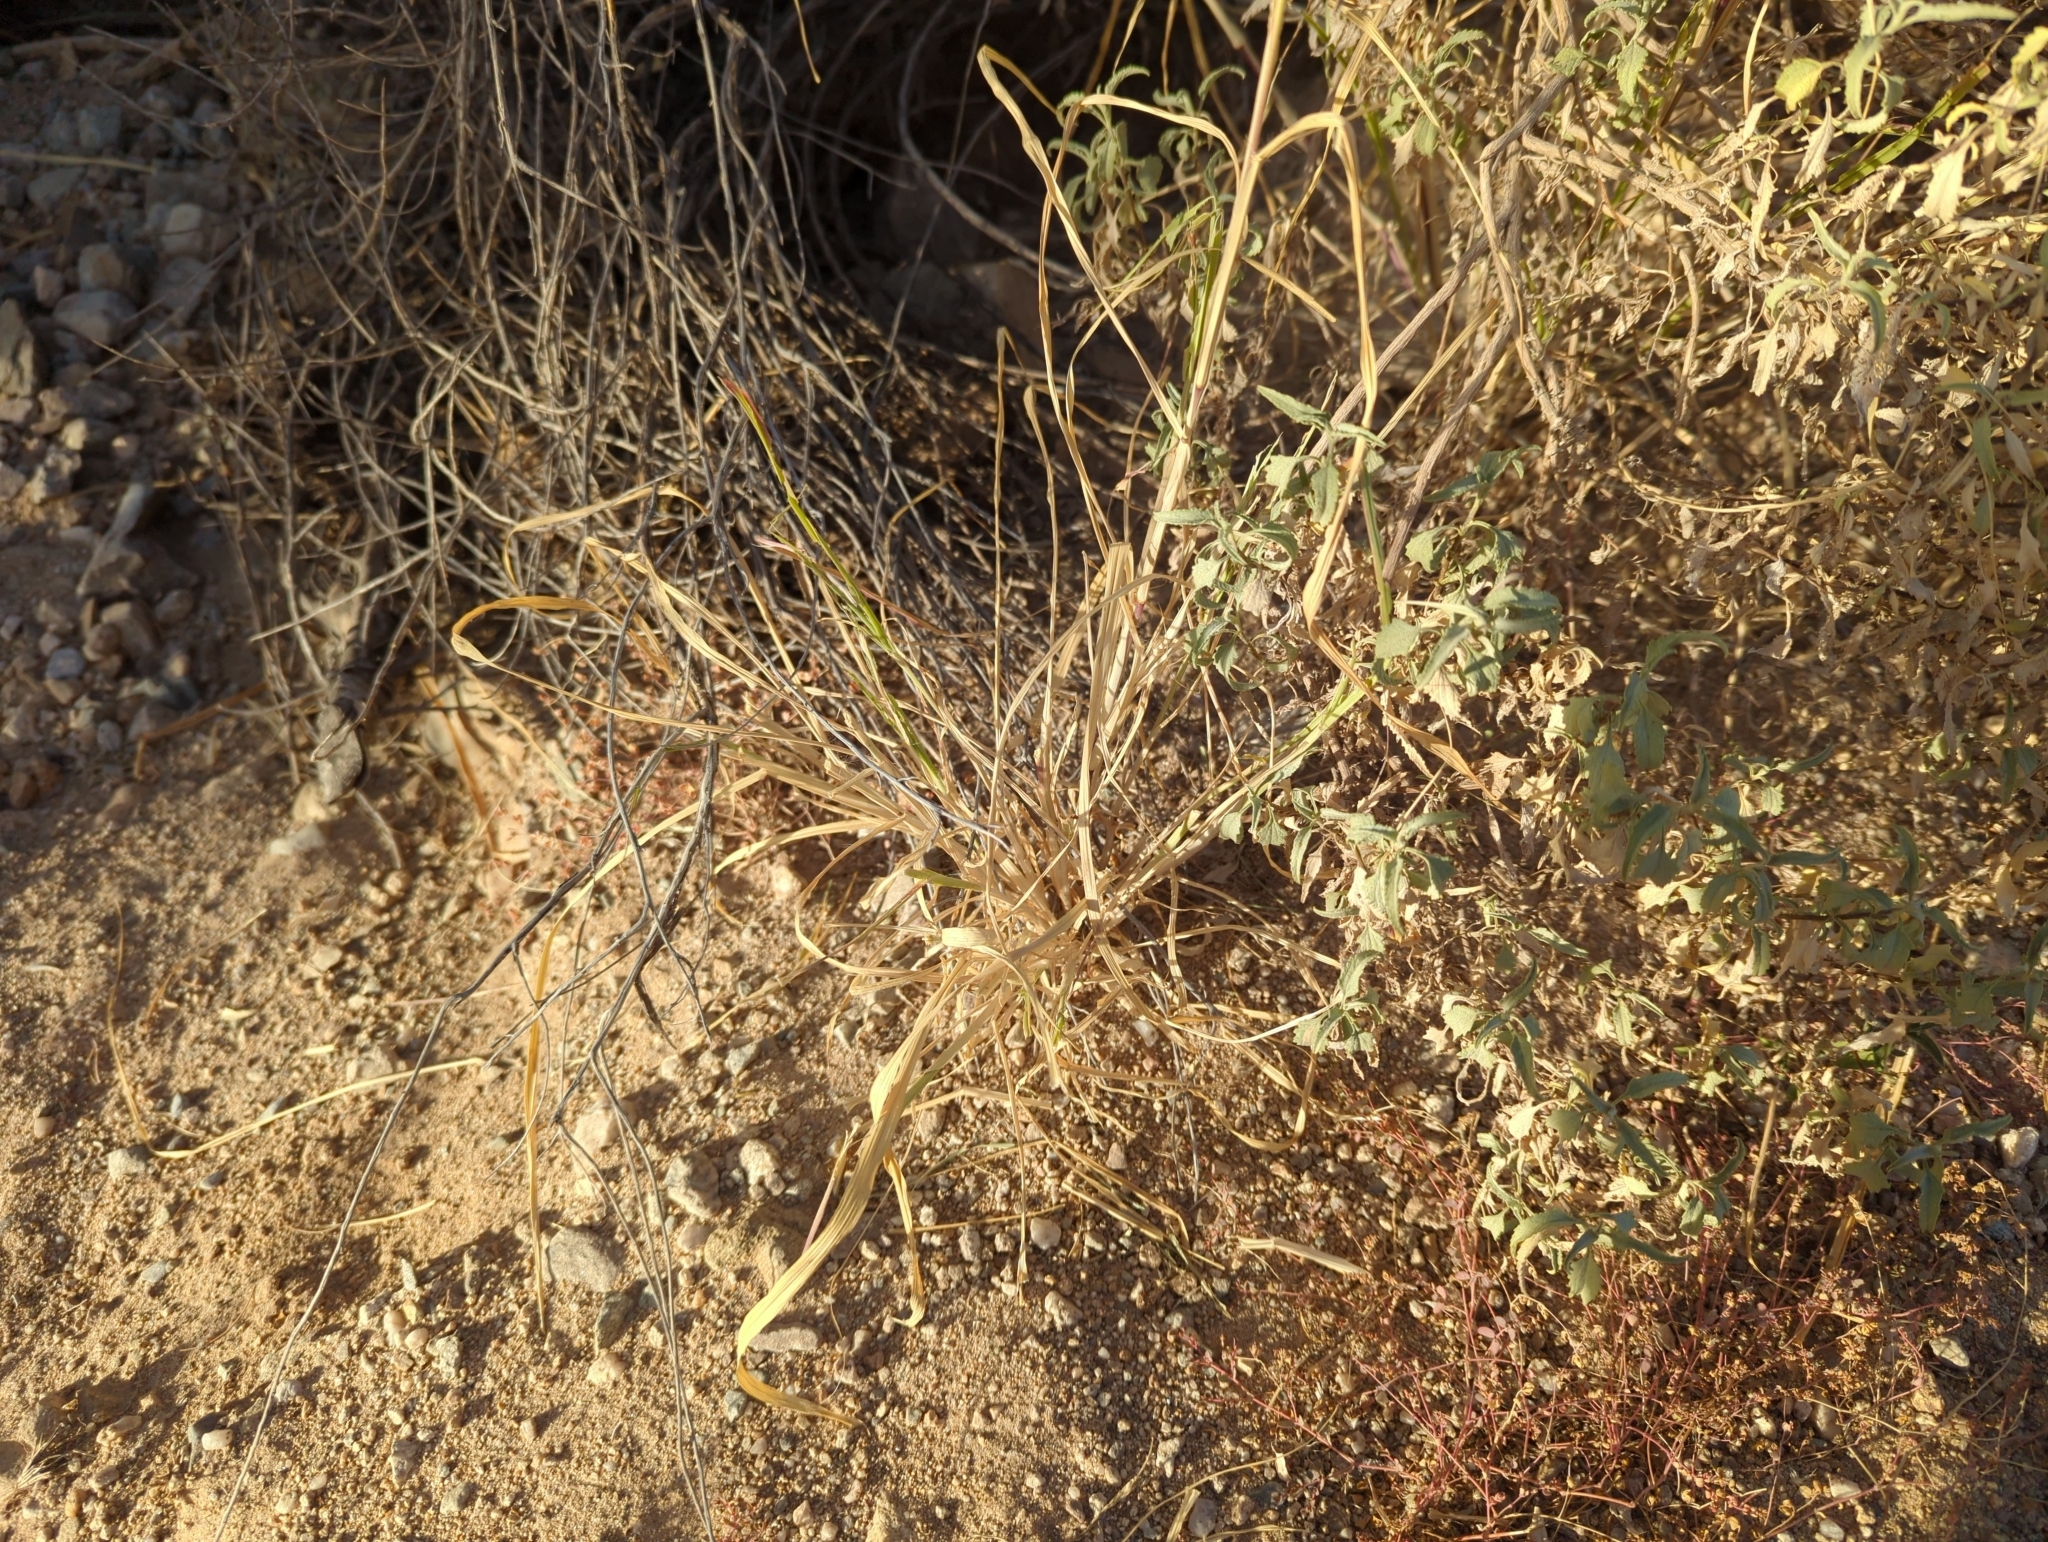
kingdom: Plantae
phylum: Tracheophyta
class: Liliopsida
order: Poales
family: Poaceae
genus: Cenchrus
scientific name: Cenchrus ciliaris
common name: Buffelgrass
